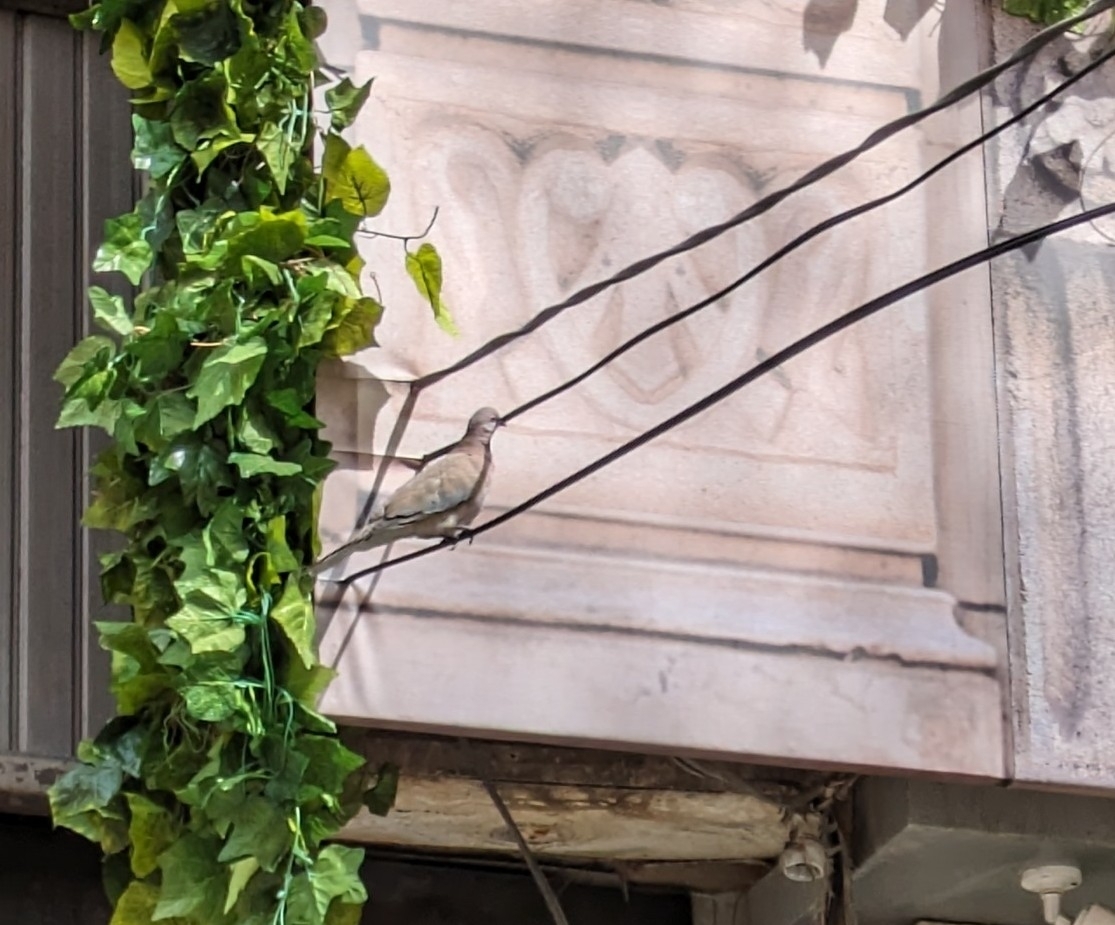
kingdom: Animalia
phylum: Chordata
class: Aves
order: Columbiformes
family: Columbidae
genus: Spilopelia
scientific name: Spilopelia senegalensis
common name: Laughing dove
